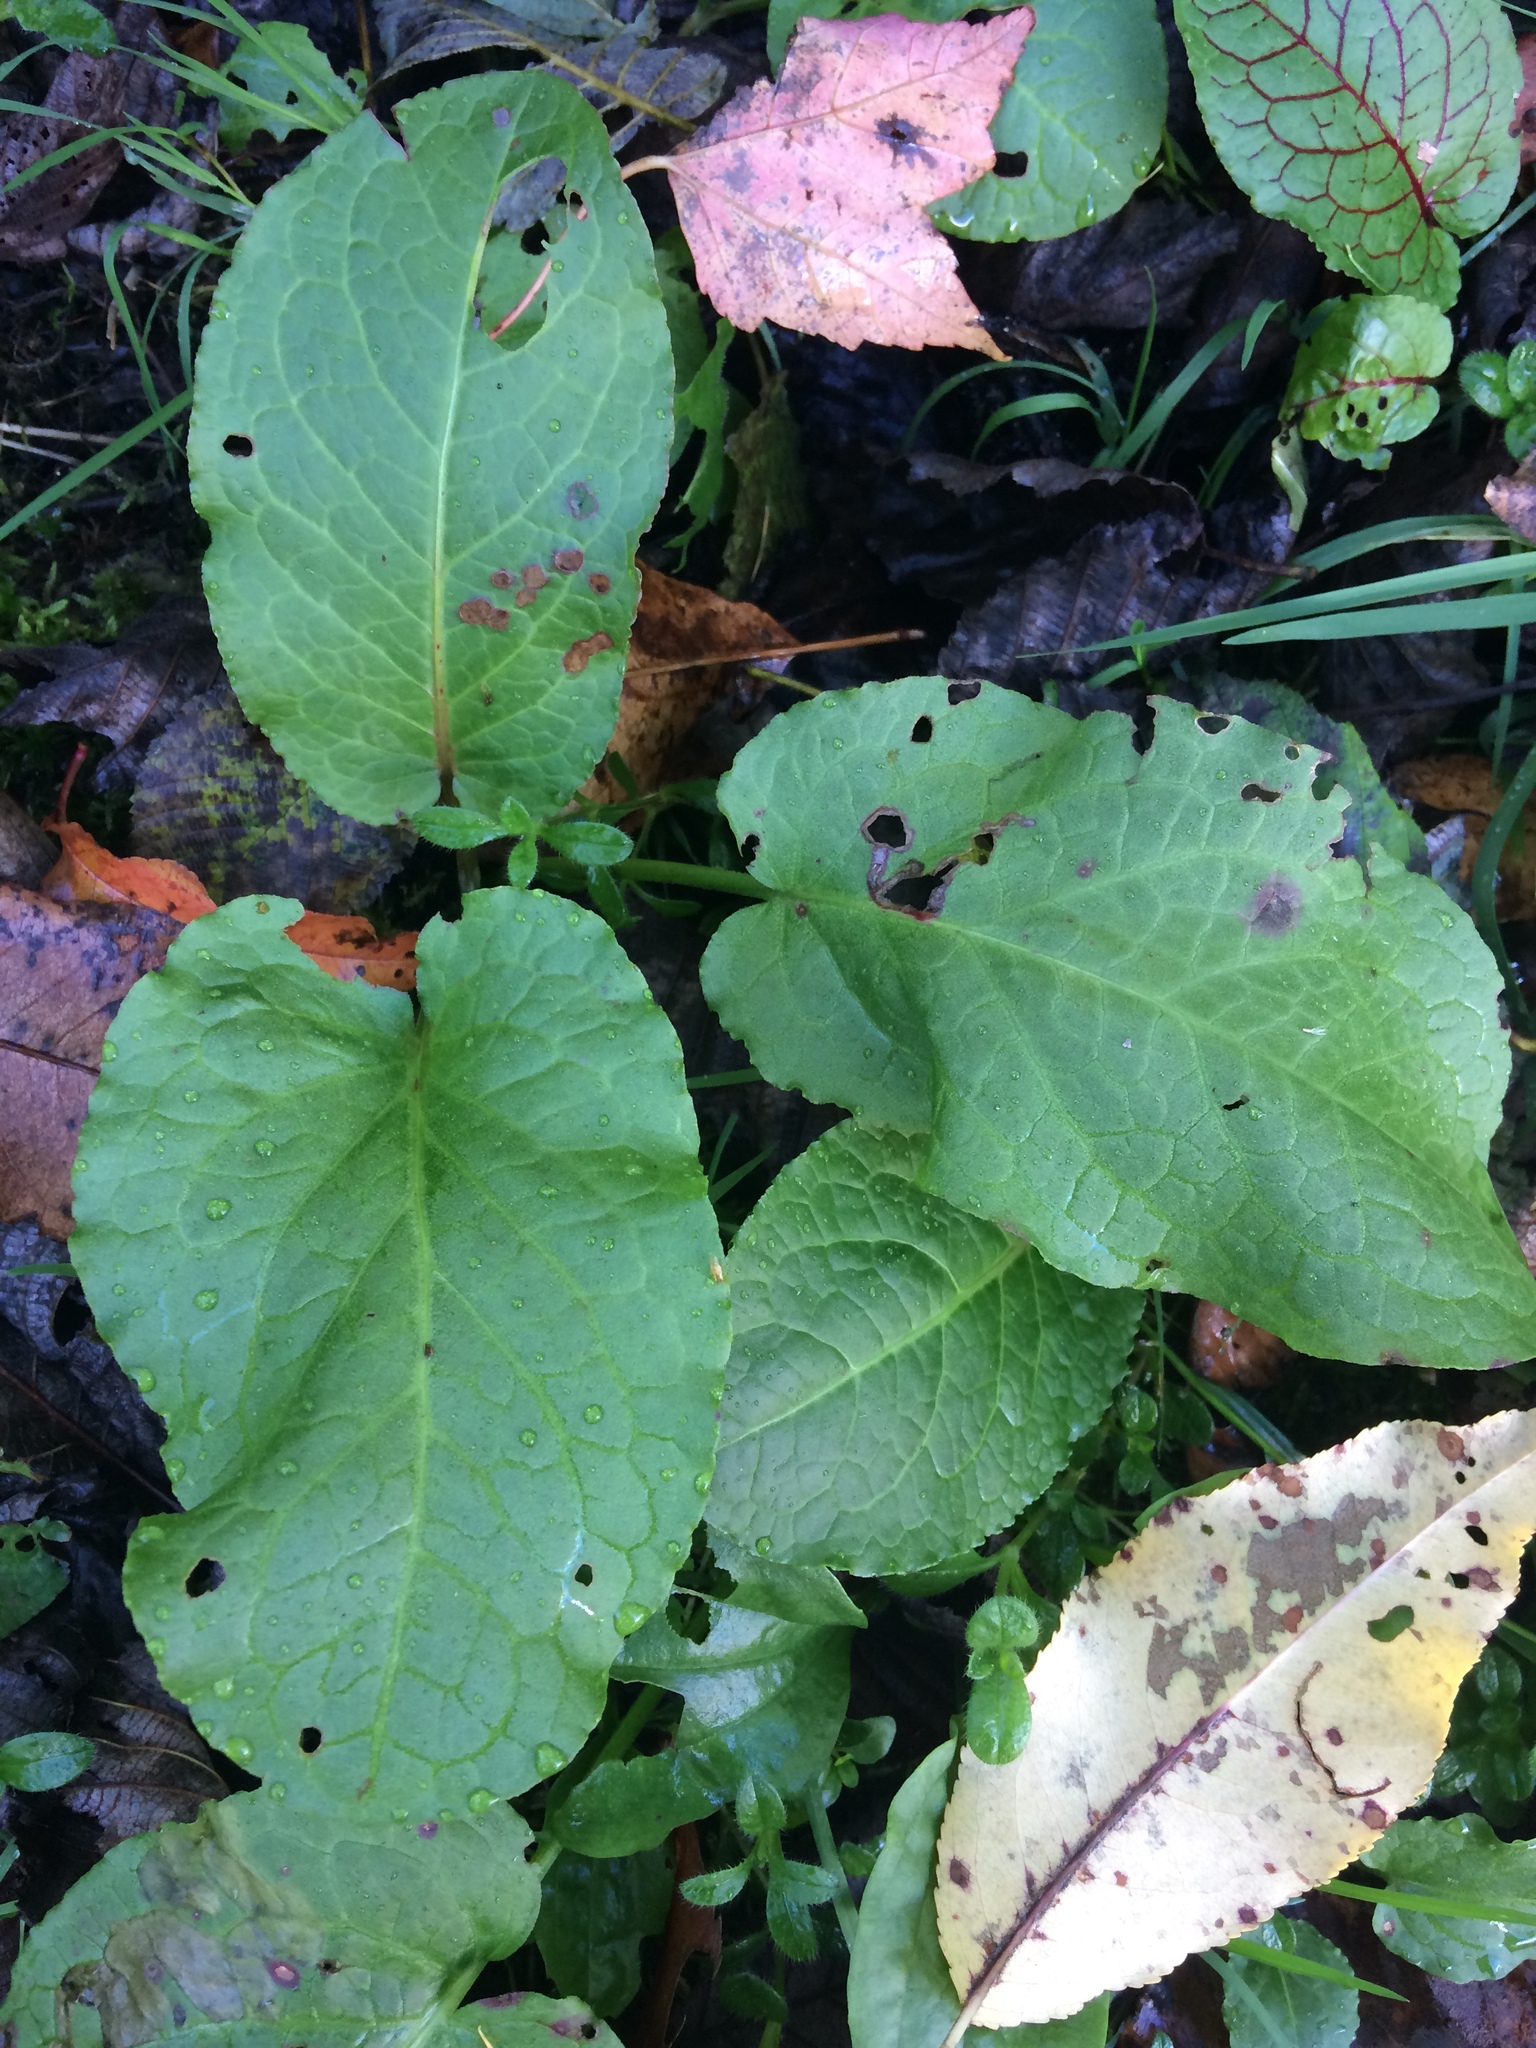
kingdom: Plantae
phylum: Tracheophyta
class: Magnoliopsida
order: Caryophyllales
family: Polygonaceae
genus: Rumex
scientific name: Rumex obtusifolius
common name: Bitter dock
